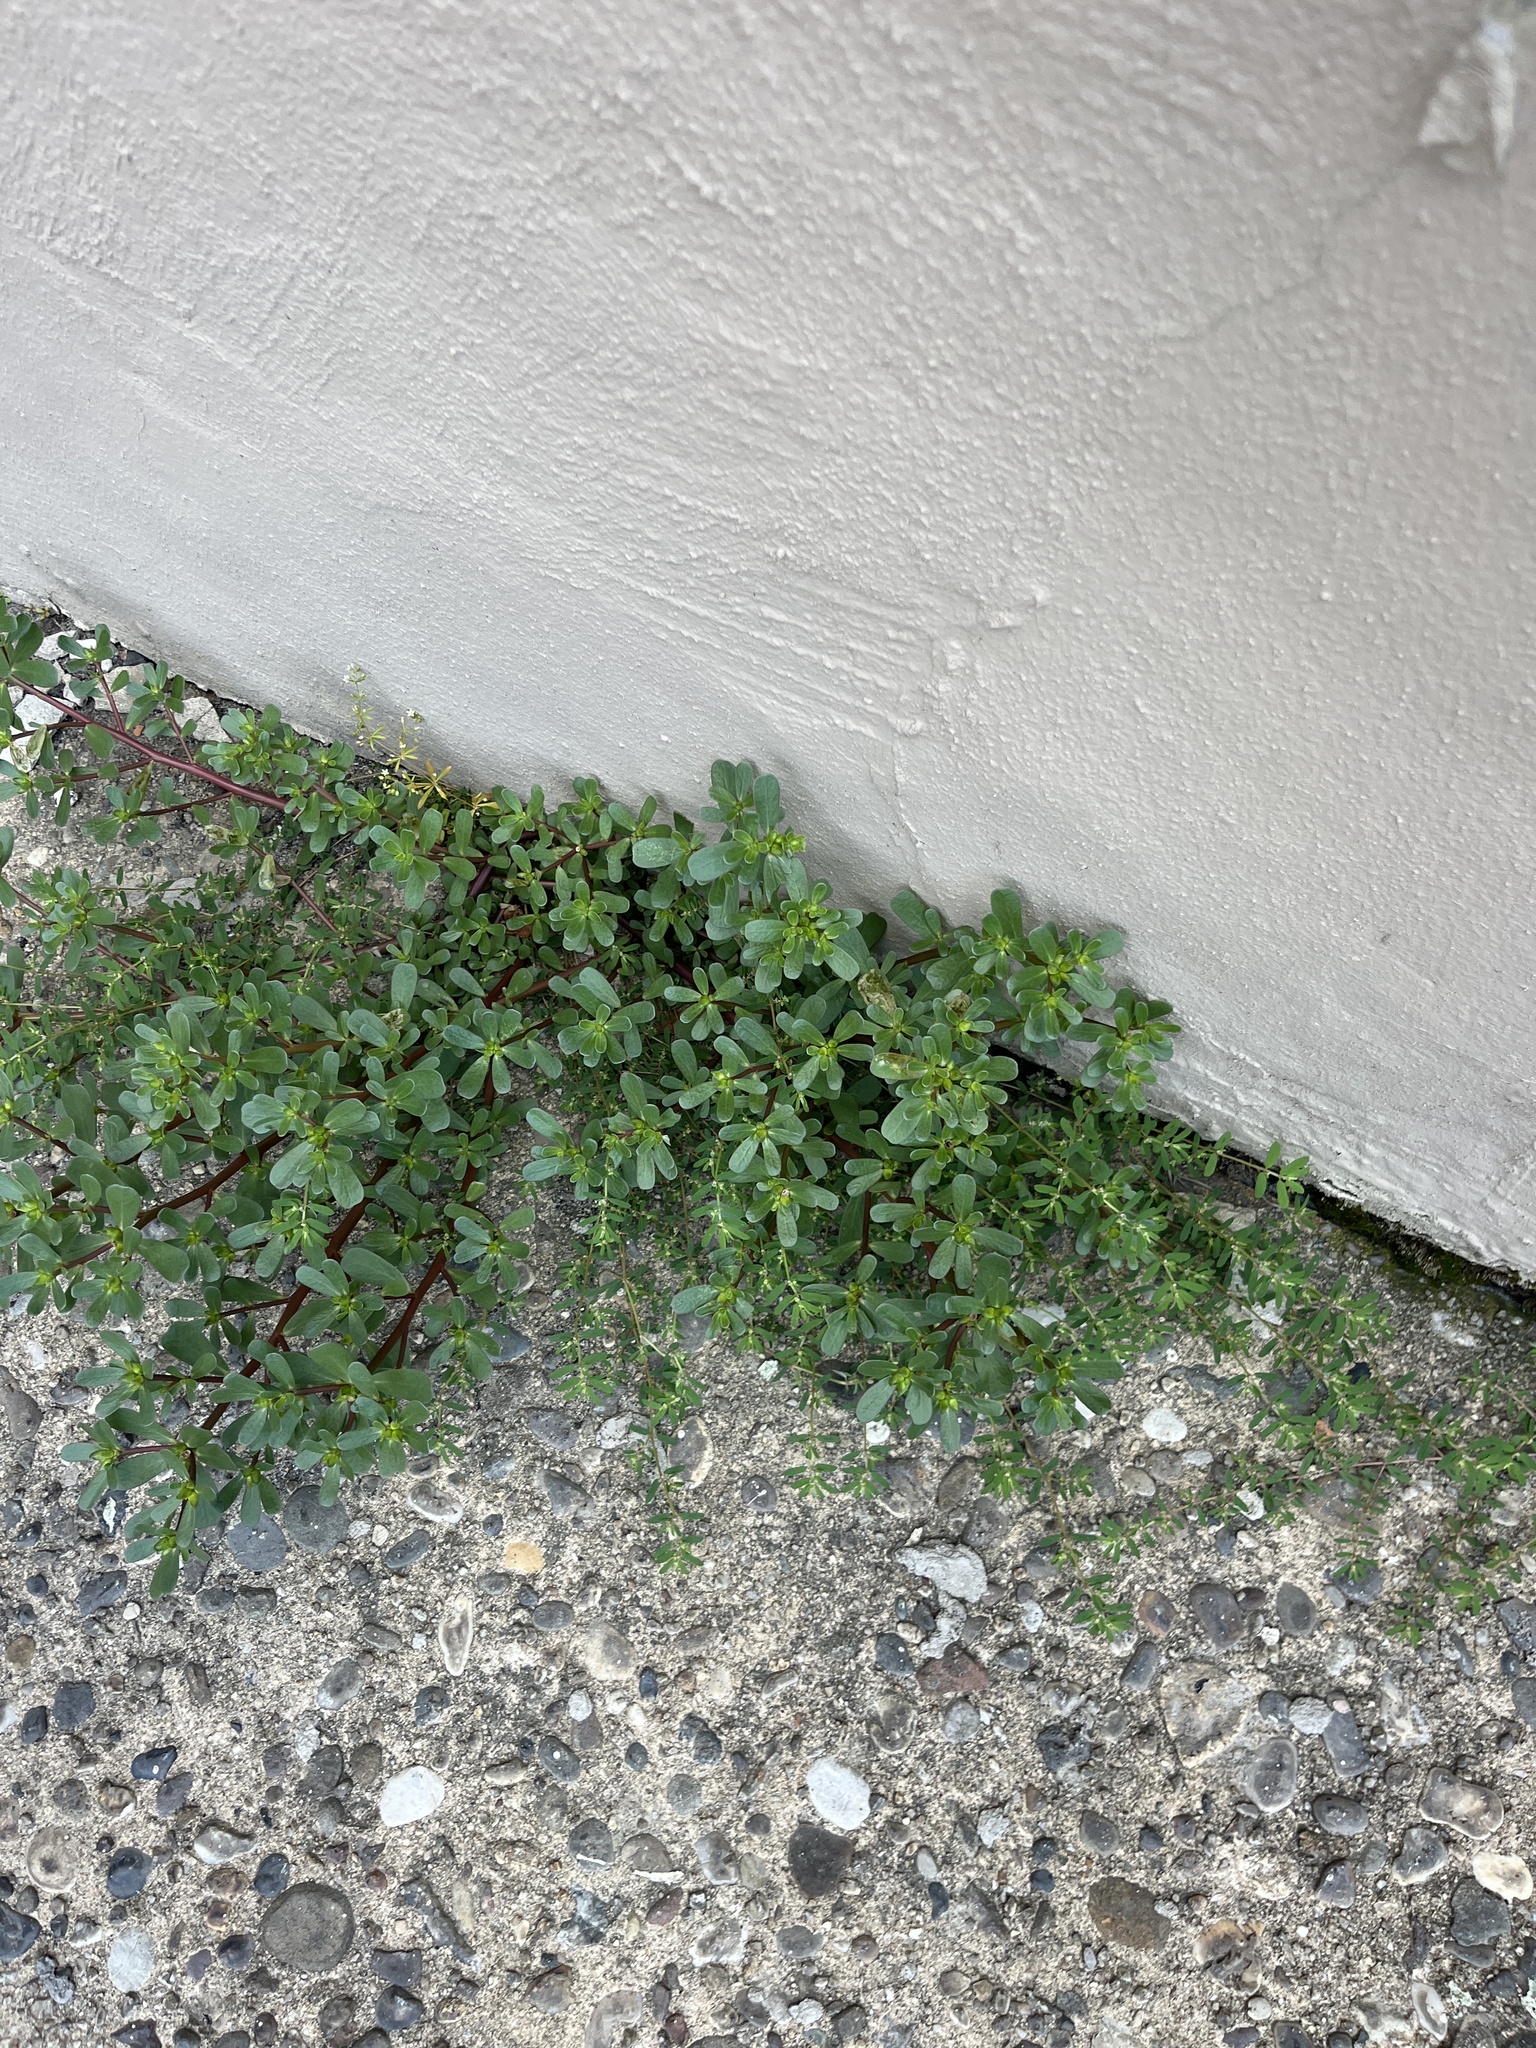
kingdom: Plantae
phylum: Tracheophyta
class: Magnoliopsida
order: Caryophyllales
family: Portulacaceae
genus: Portulaca
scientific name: Portulaca oleracea
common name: Common purslane
